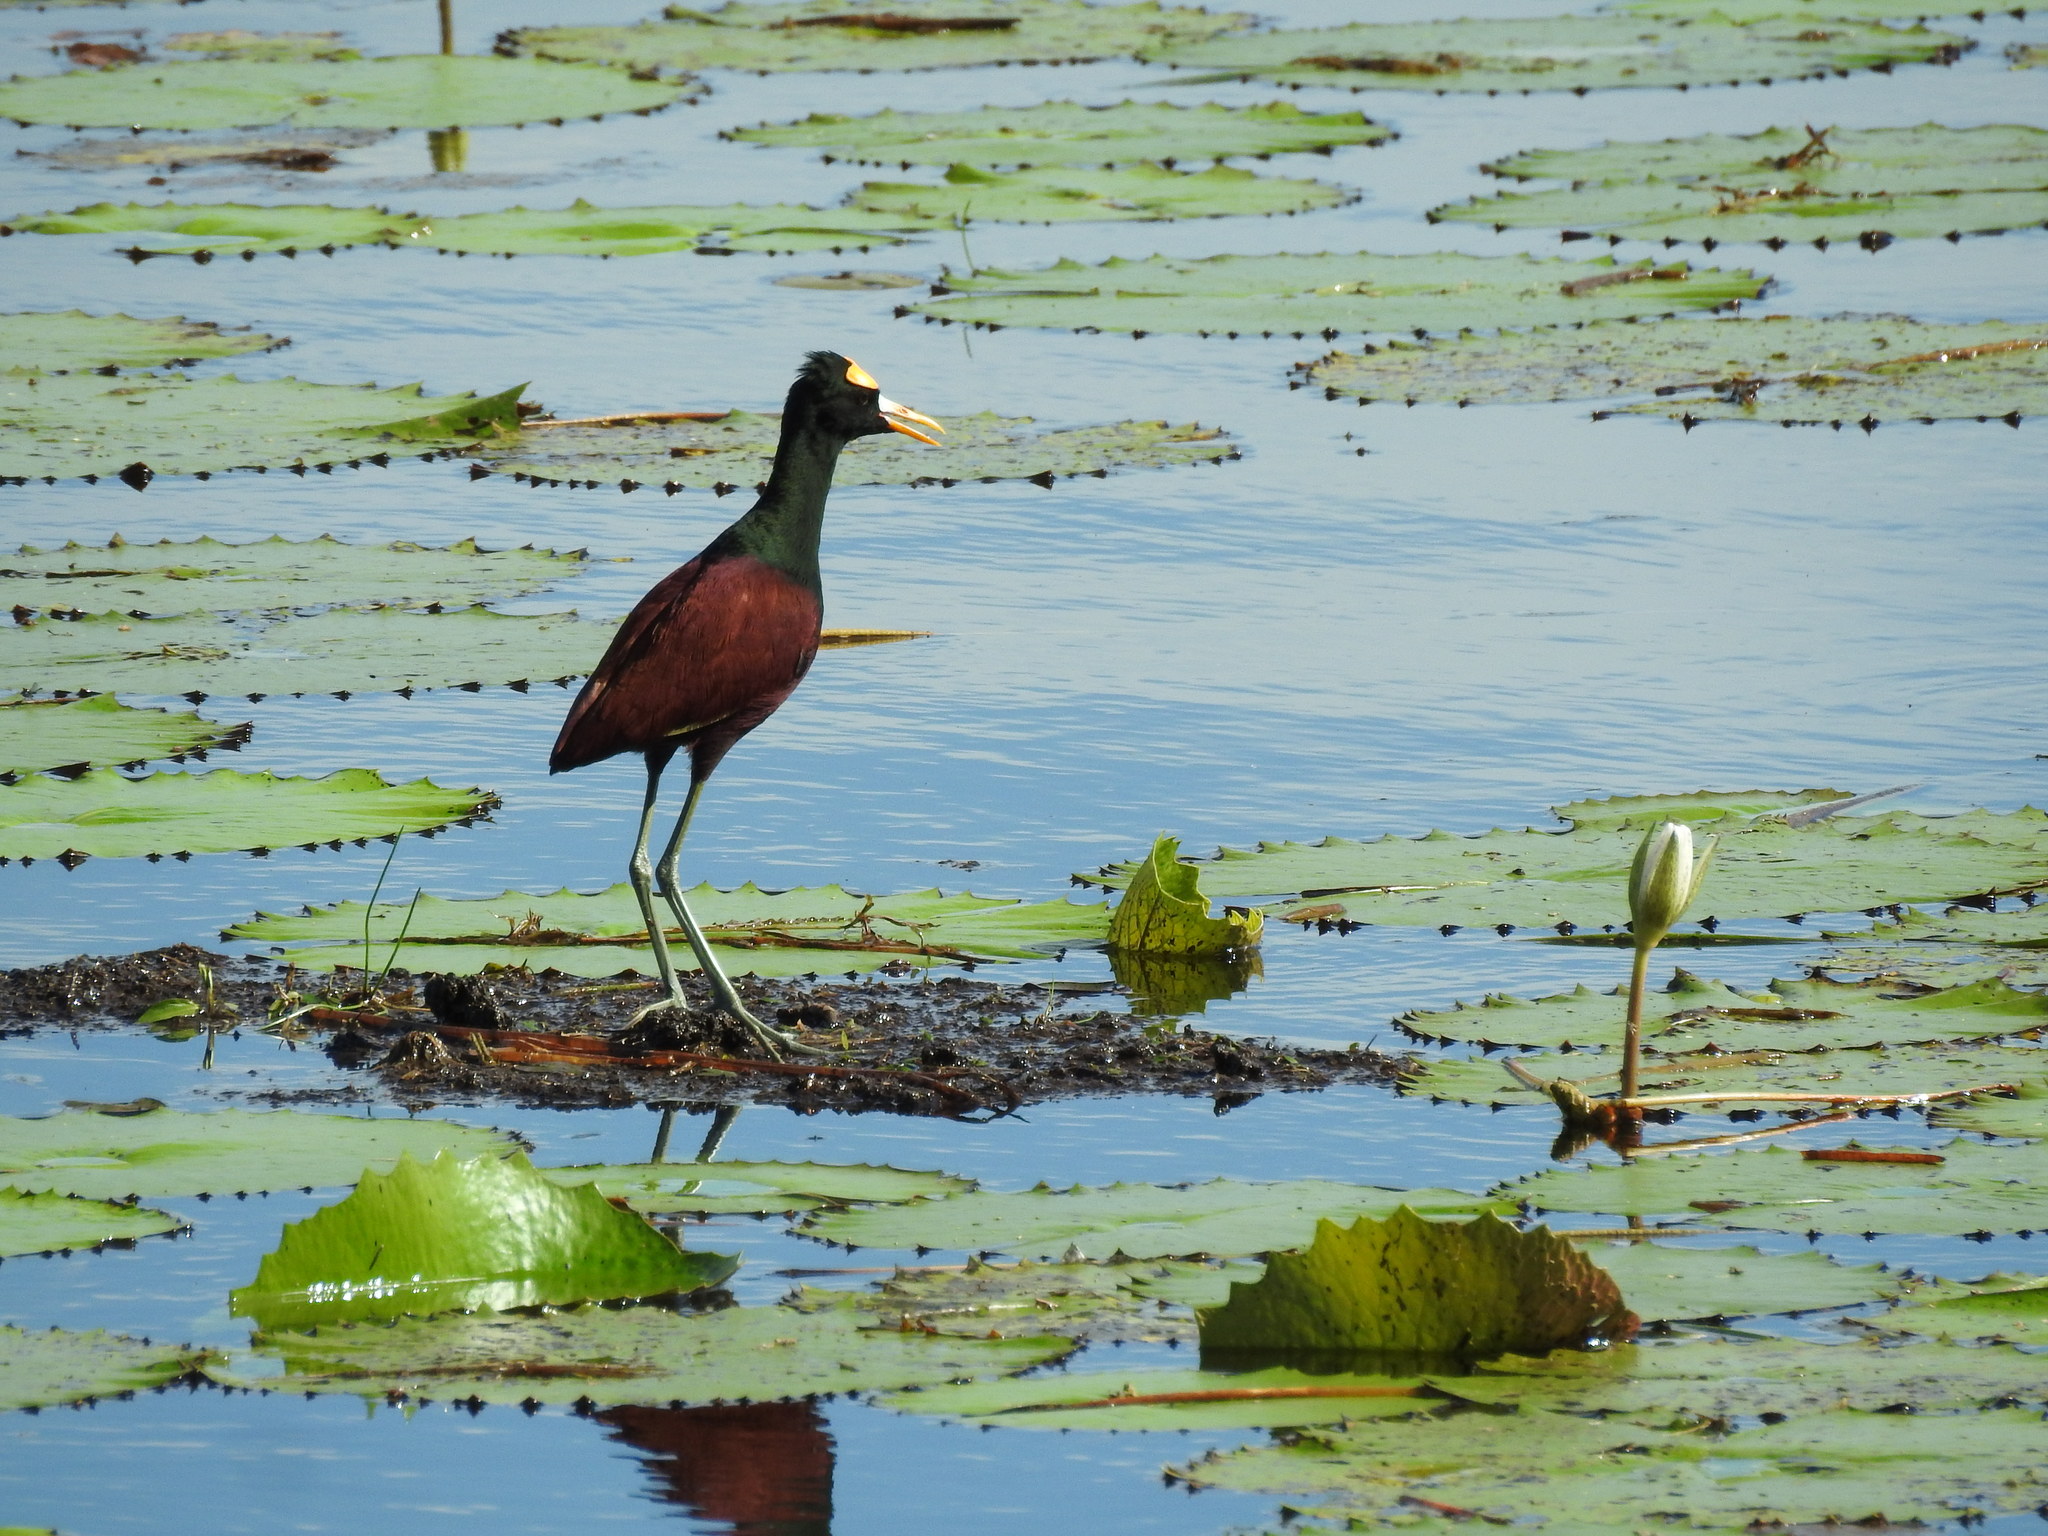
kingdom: Animalia
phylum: Chordata
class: Aves
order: Charadriiformes
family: Jacanidae
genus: Jacana
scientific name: Jacana spinosa
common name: Northern jacana
